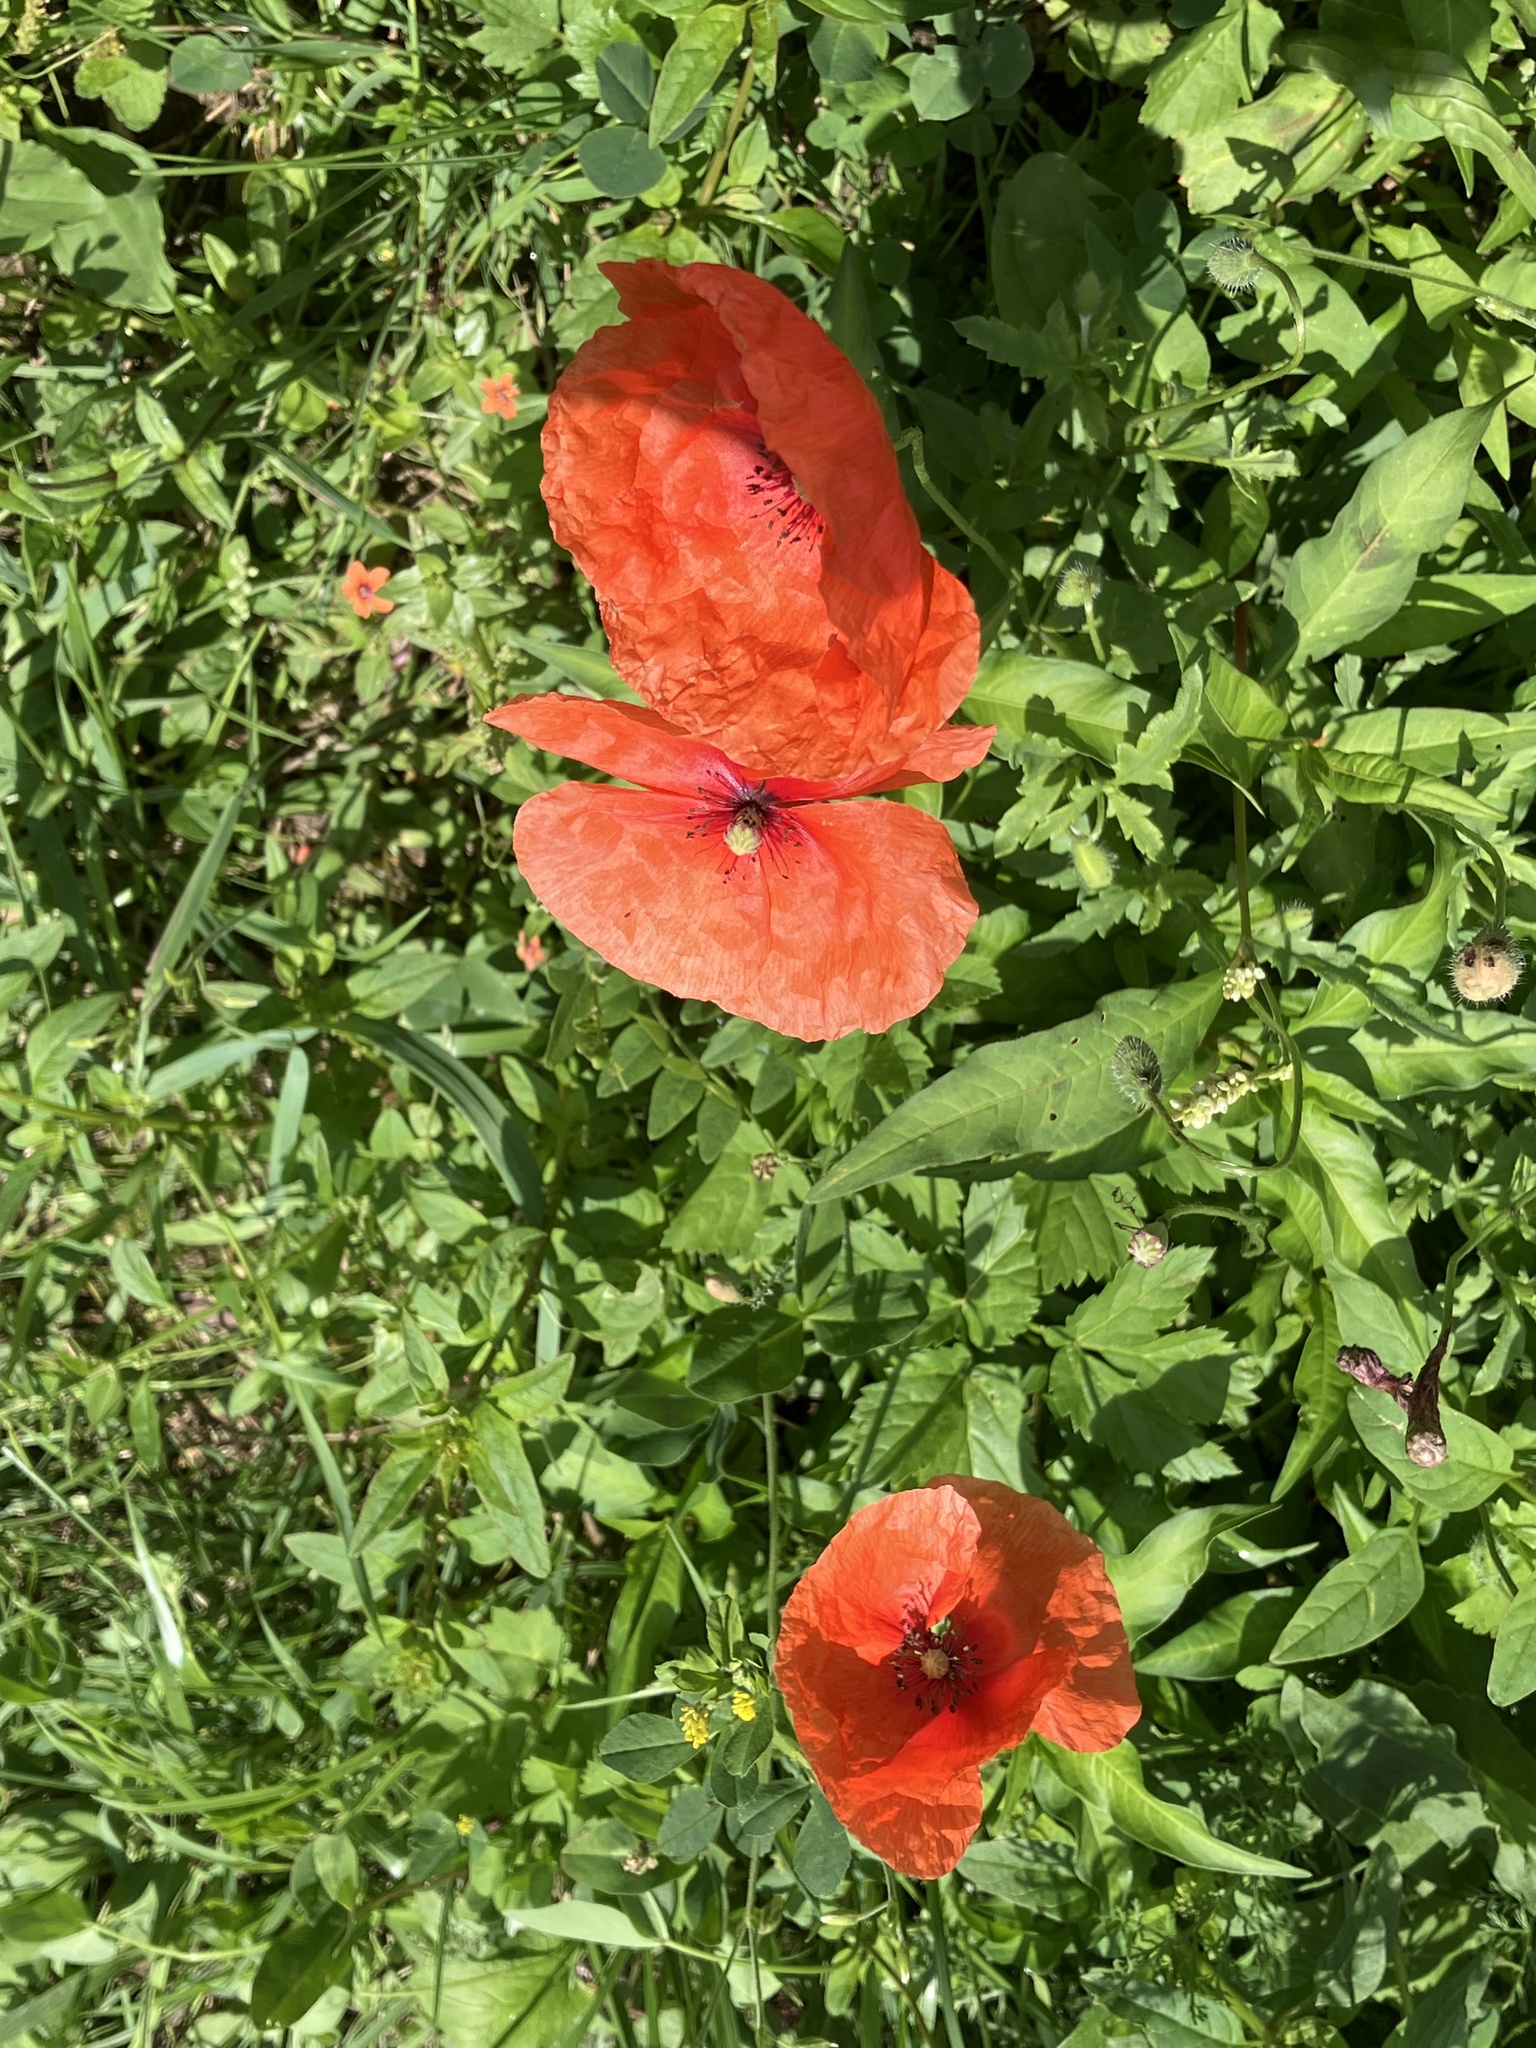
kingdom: Plantae
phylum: Tracheophyta
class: Magnoliopsida
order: Ranunculales
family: Papaveraceae
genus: Papaver
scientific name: Papaver rhoeas
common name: Corn poppy
